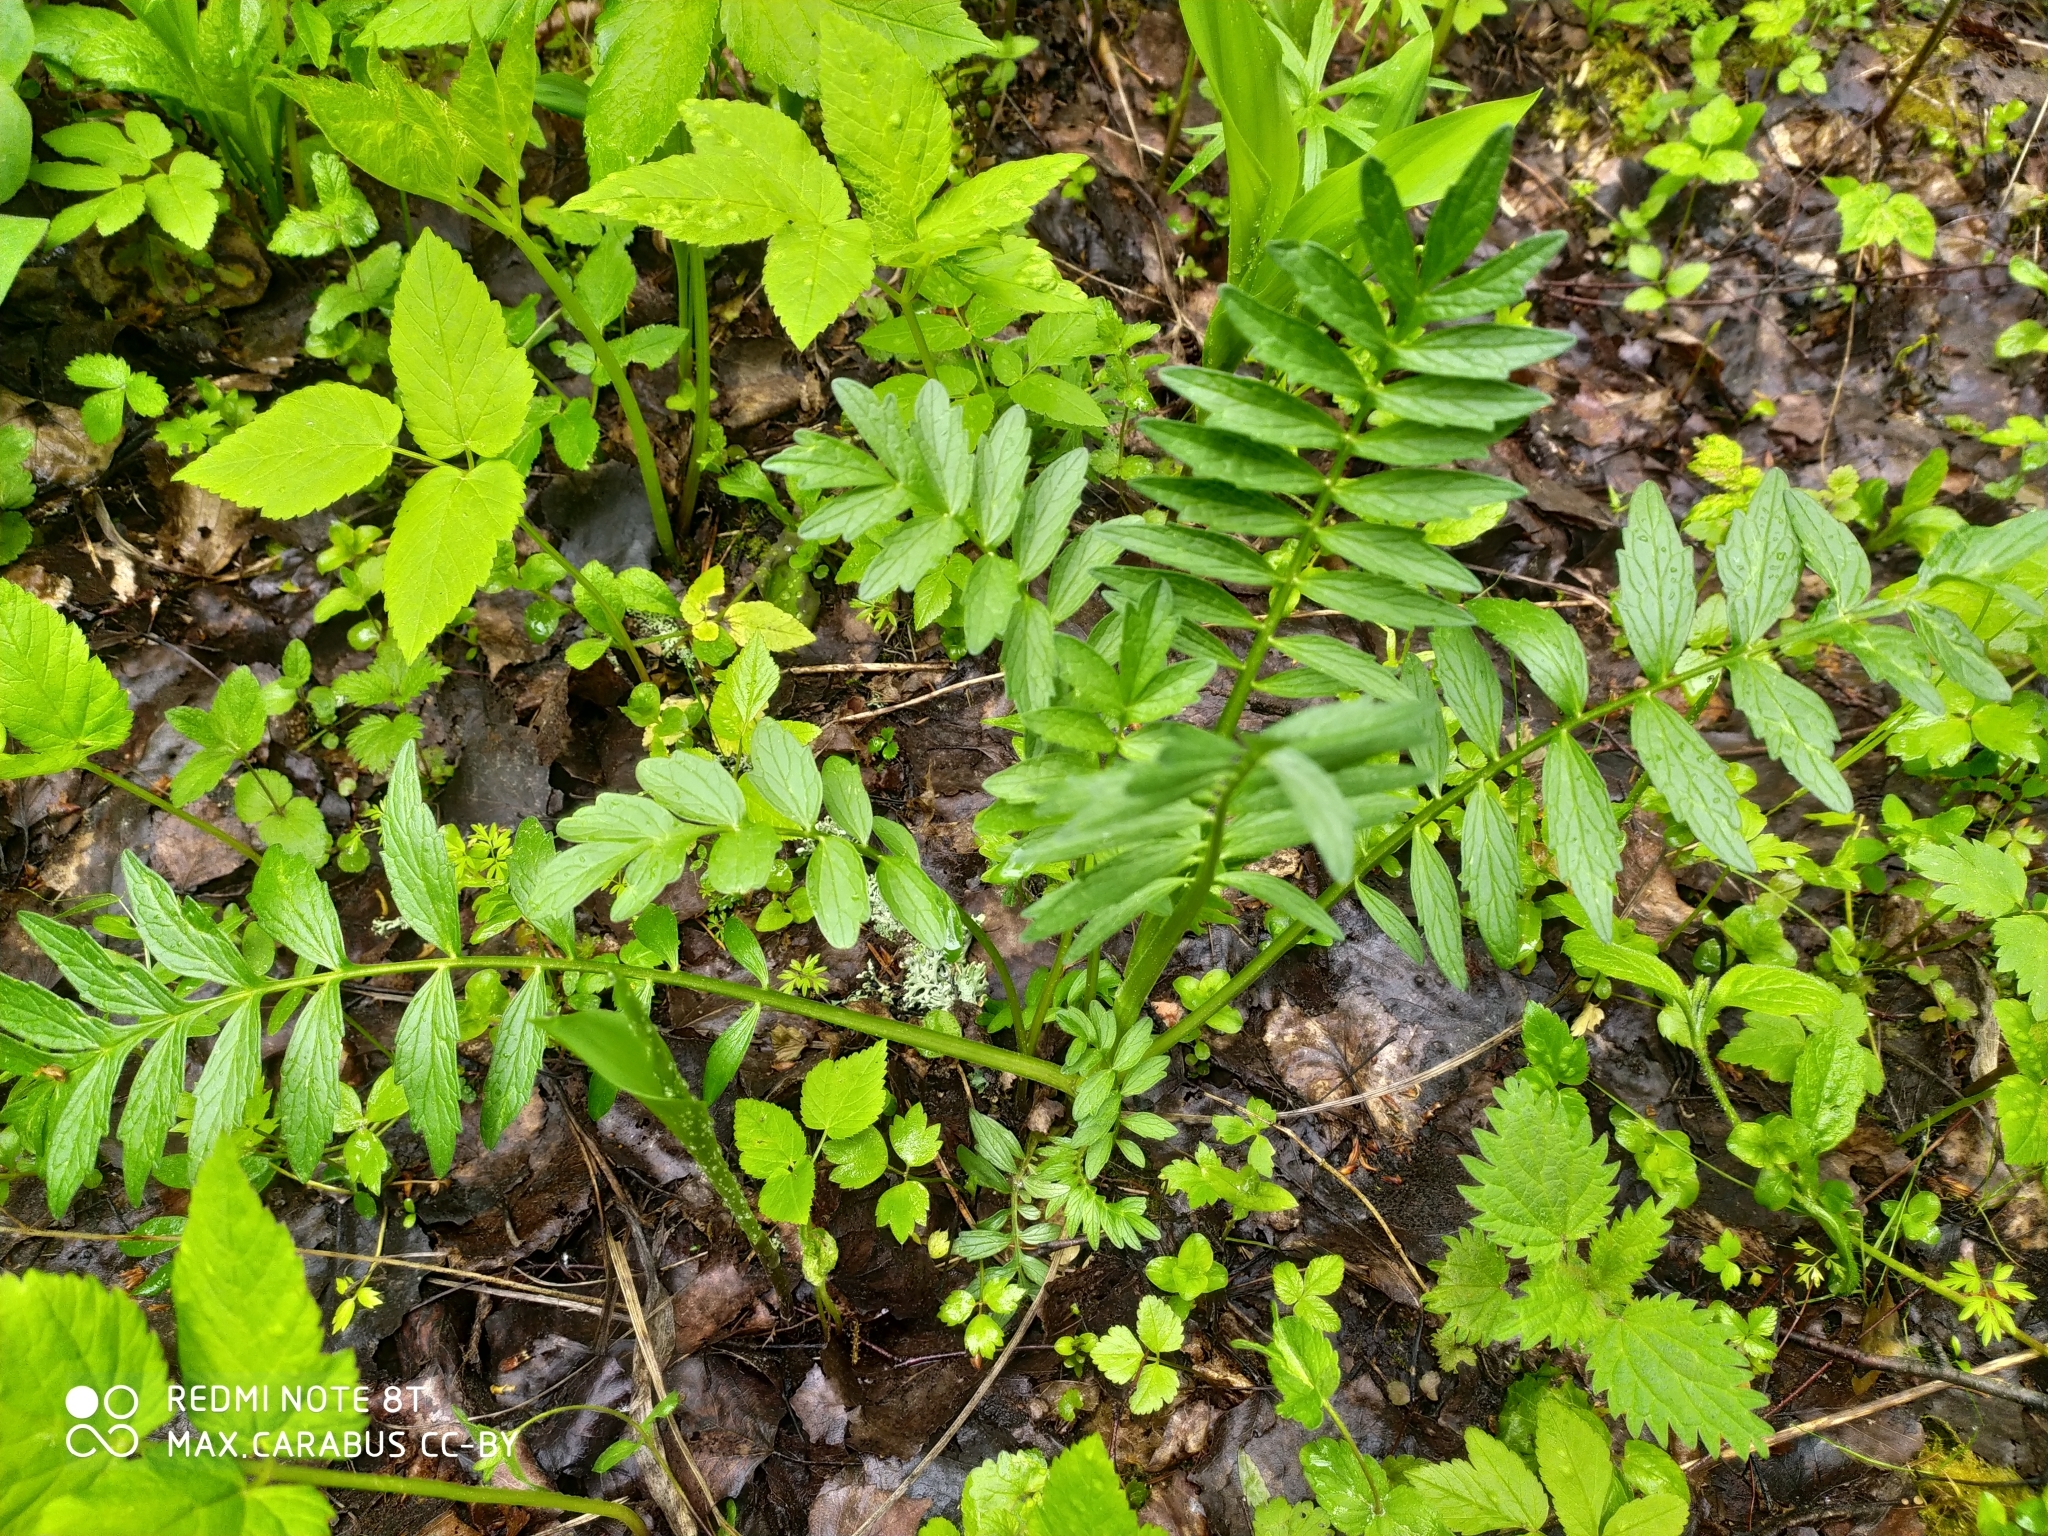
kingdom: Plantae
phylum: Tracheophyta
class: Magnoliopsida
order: Dipsacales
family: Caprifoliaceae
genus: Valeriana
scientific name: Valeriana officinalis
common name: Common valerian
